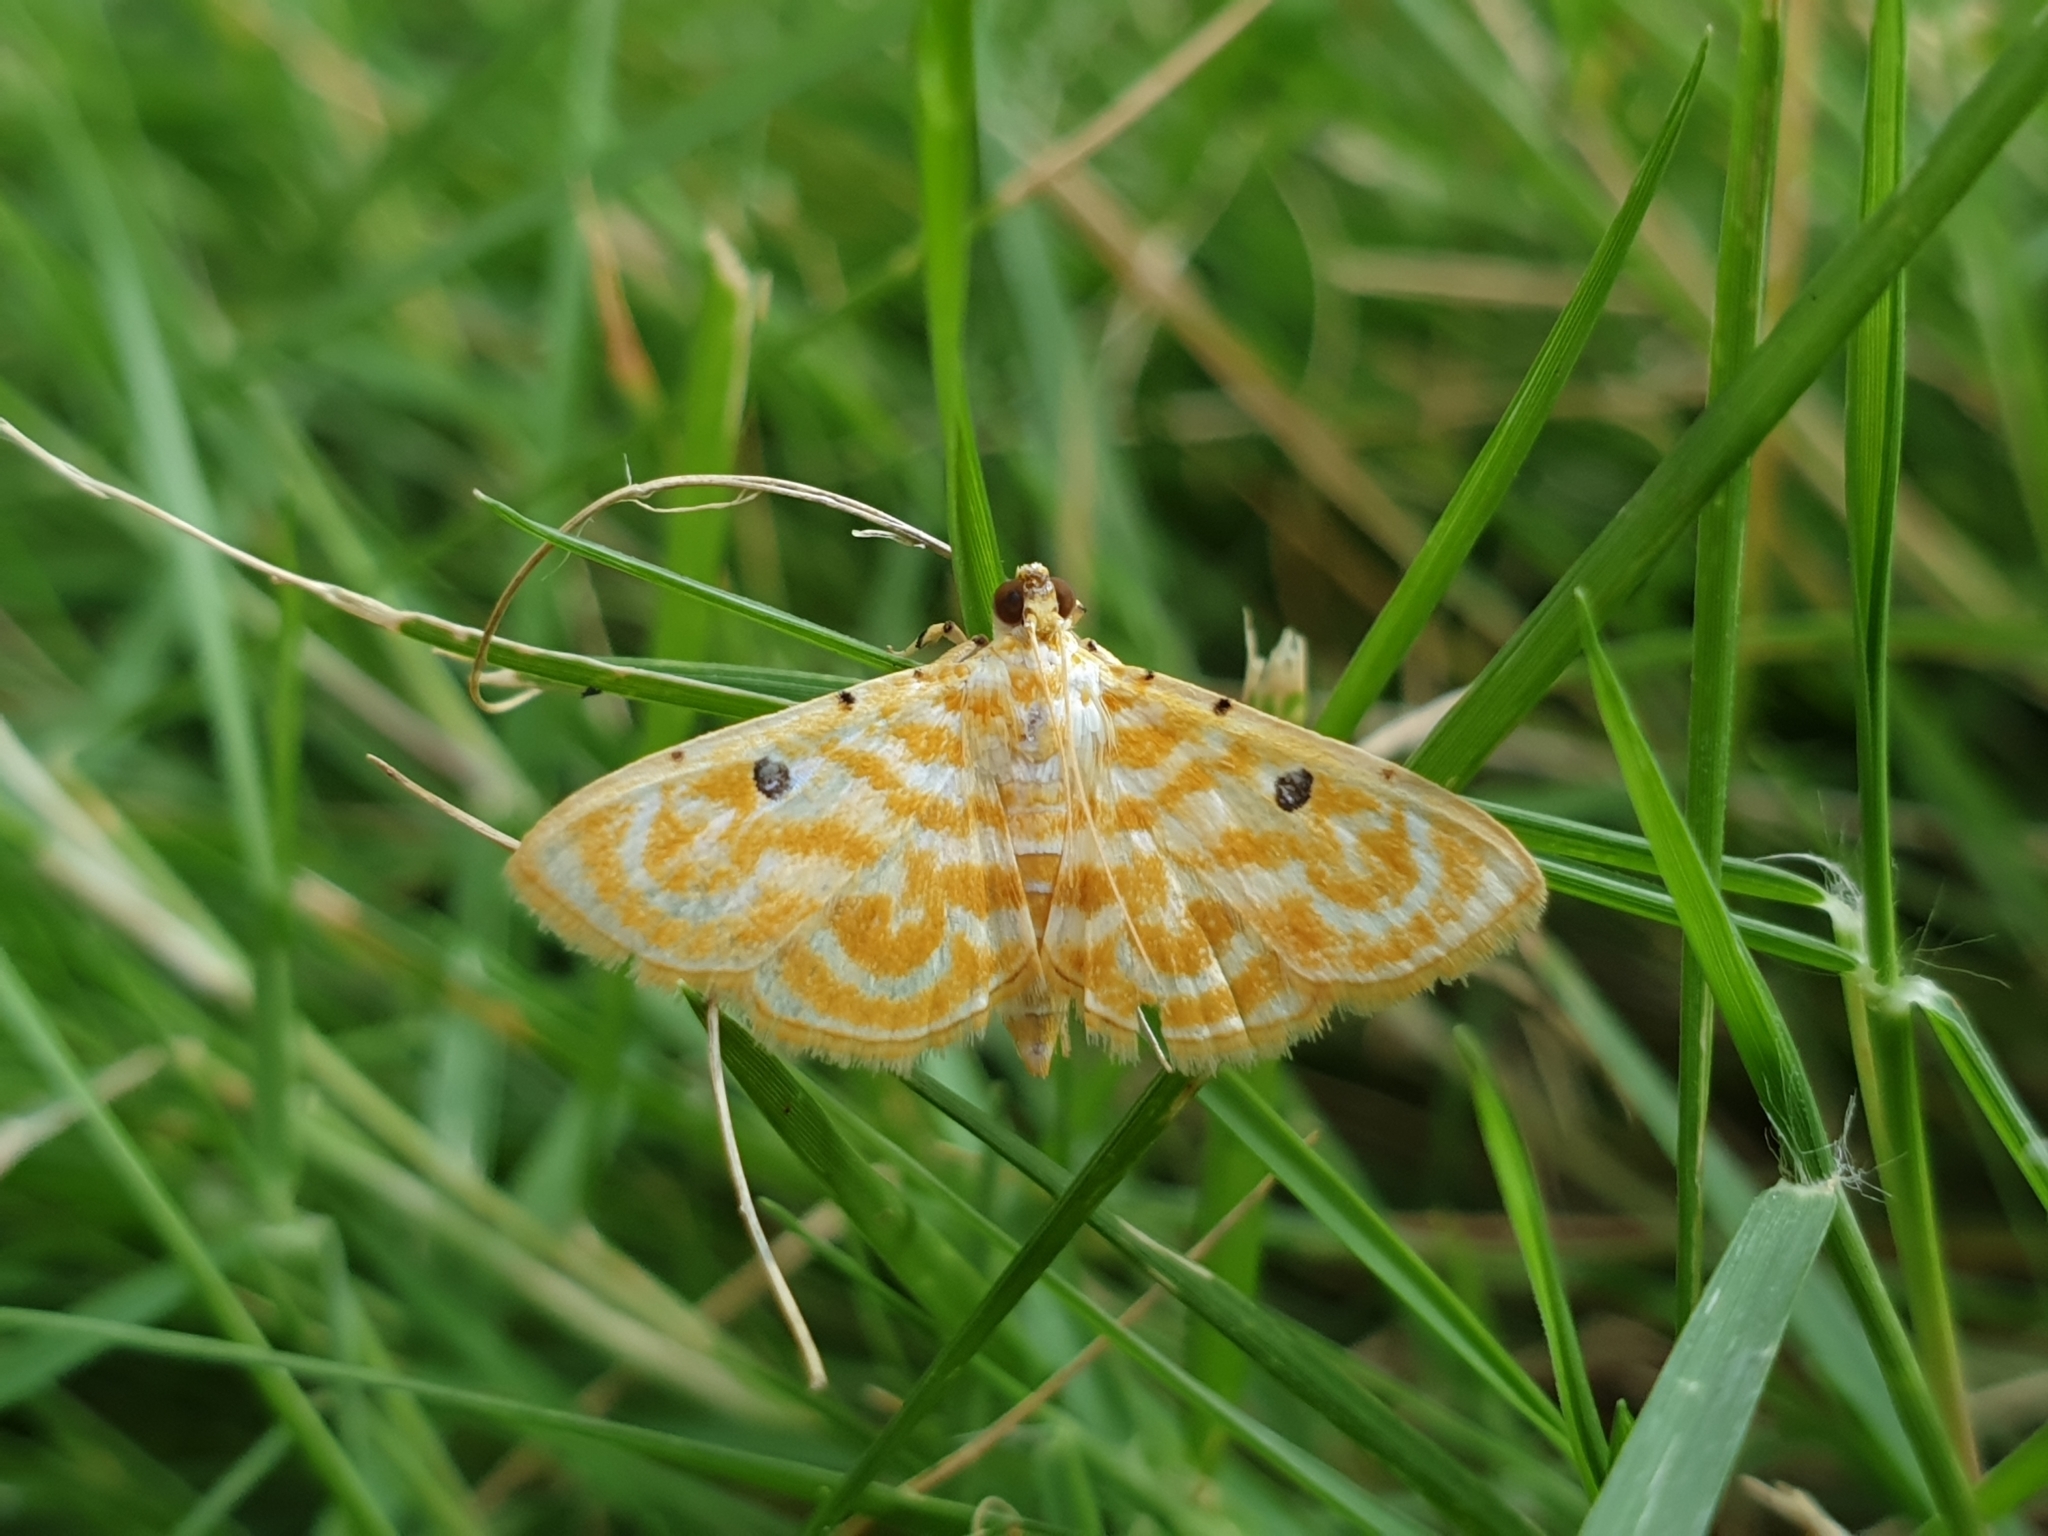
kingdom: Animalia
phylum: Arthropoda
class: Insecta
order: Lepidoptera
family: Crambidae
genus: Notarcha
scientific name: Notarcha aurolinealis
